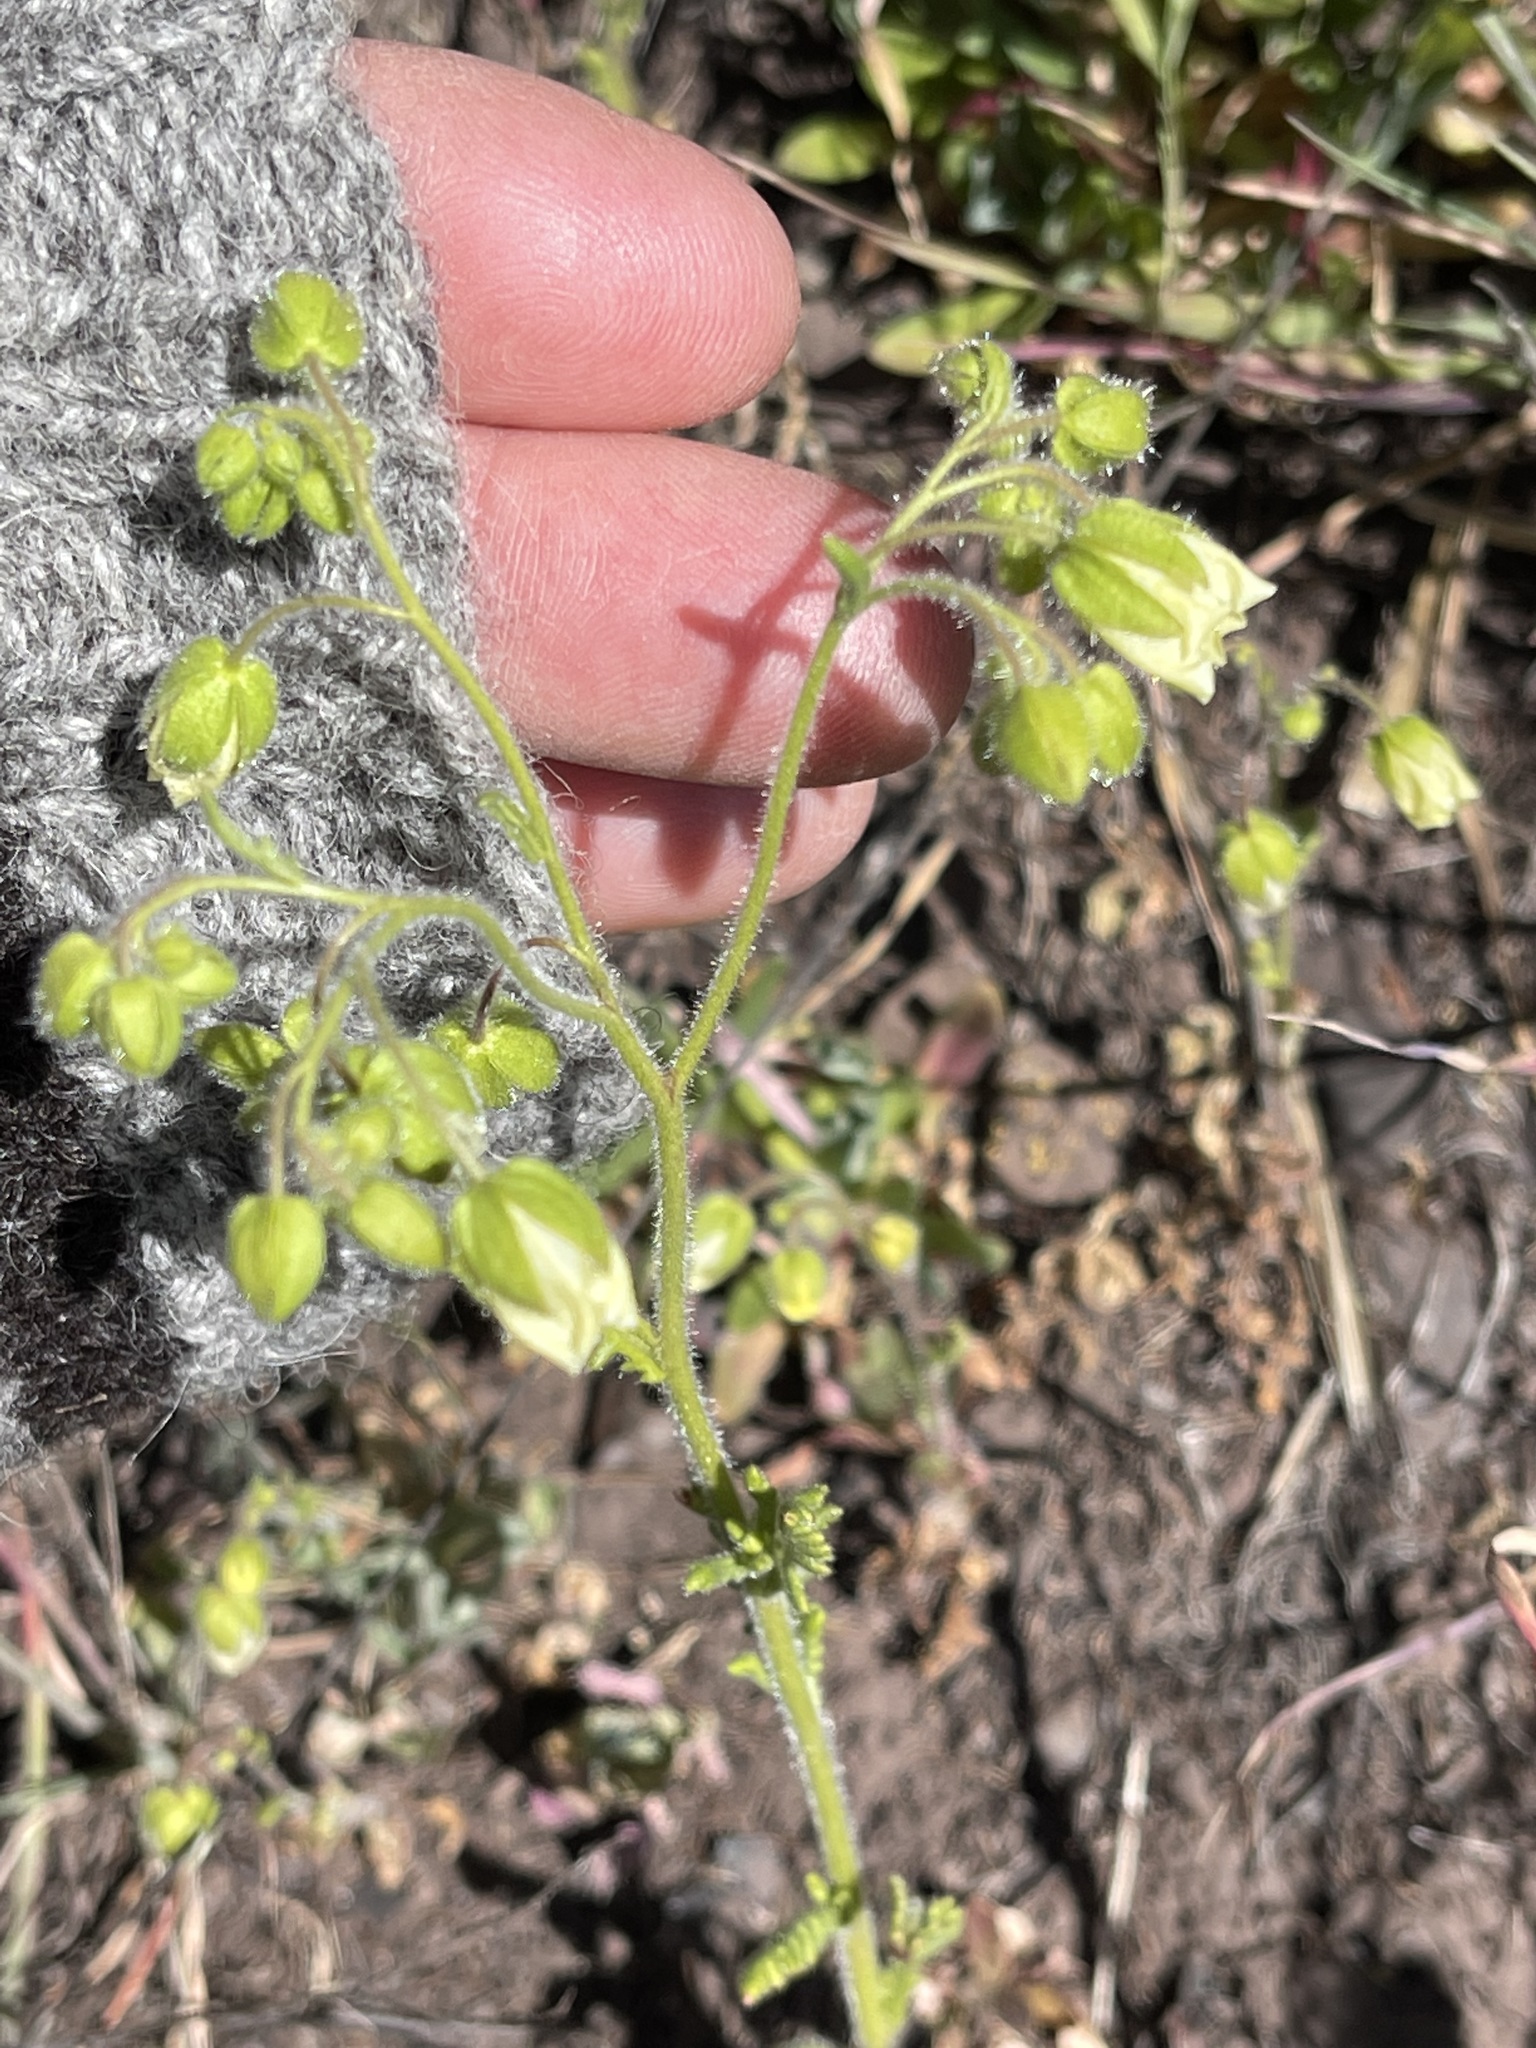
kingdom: Plantae
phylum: Tracheophyta
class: Magnoliopsida
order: Boraginales
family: Hydrophyllaceae
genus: Emmenanthe
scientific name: Emmenanthe penduliflora
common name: Whispering-bells
